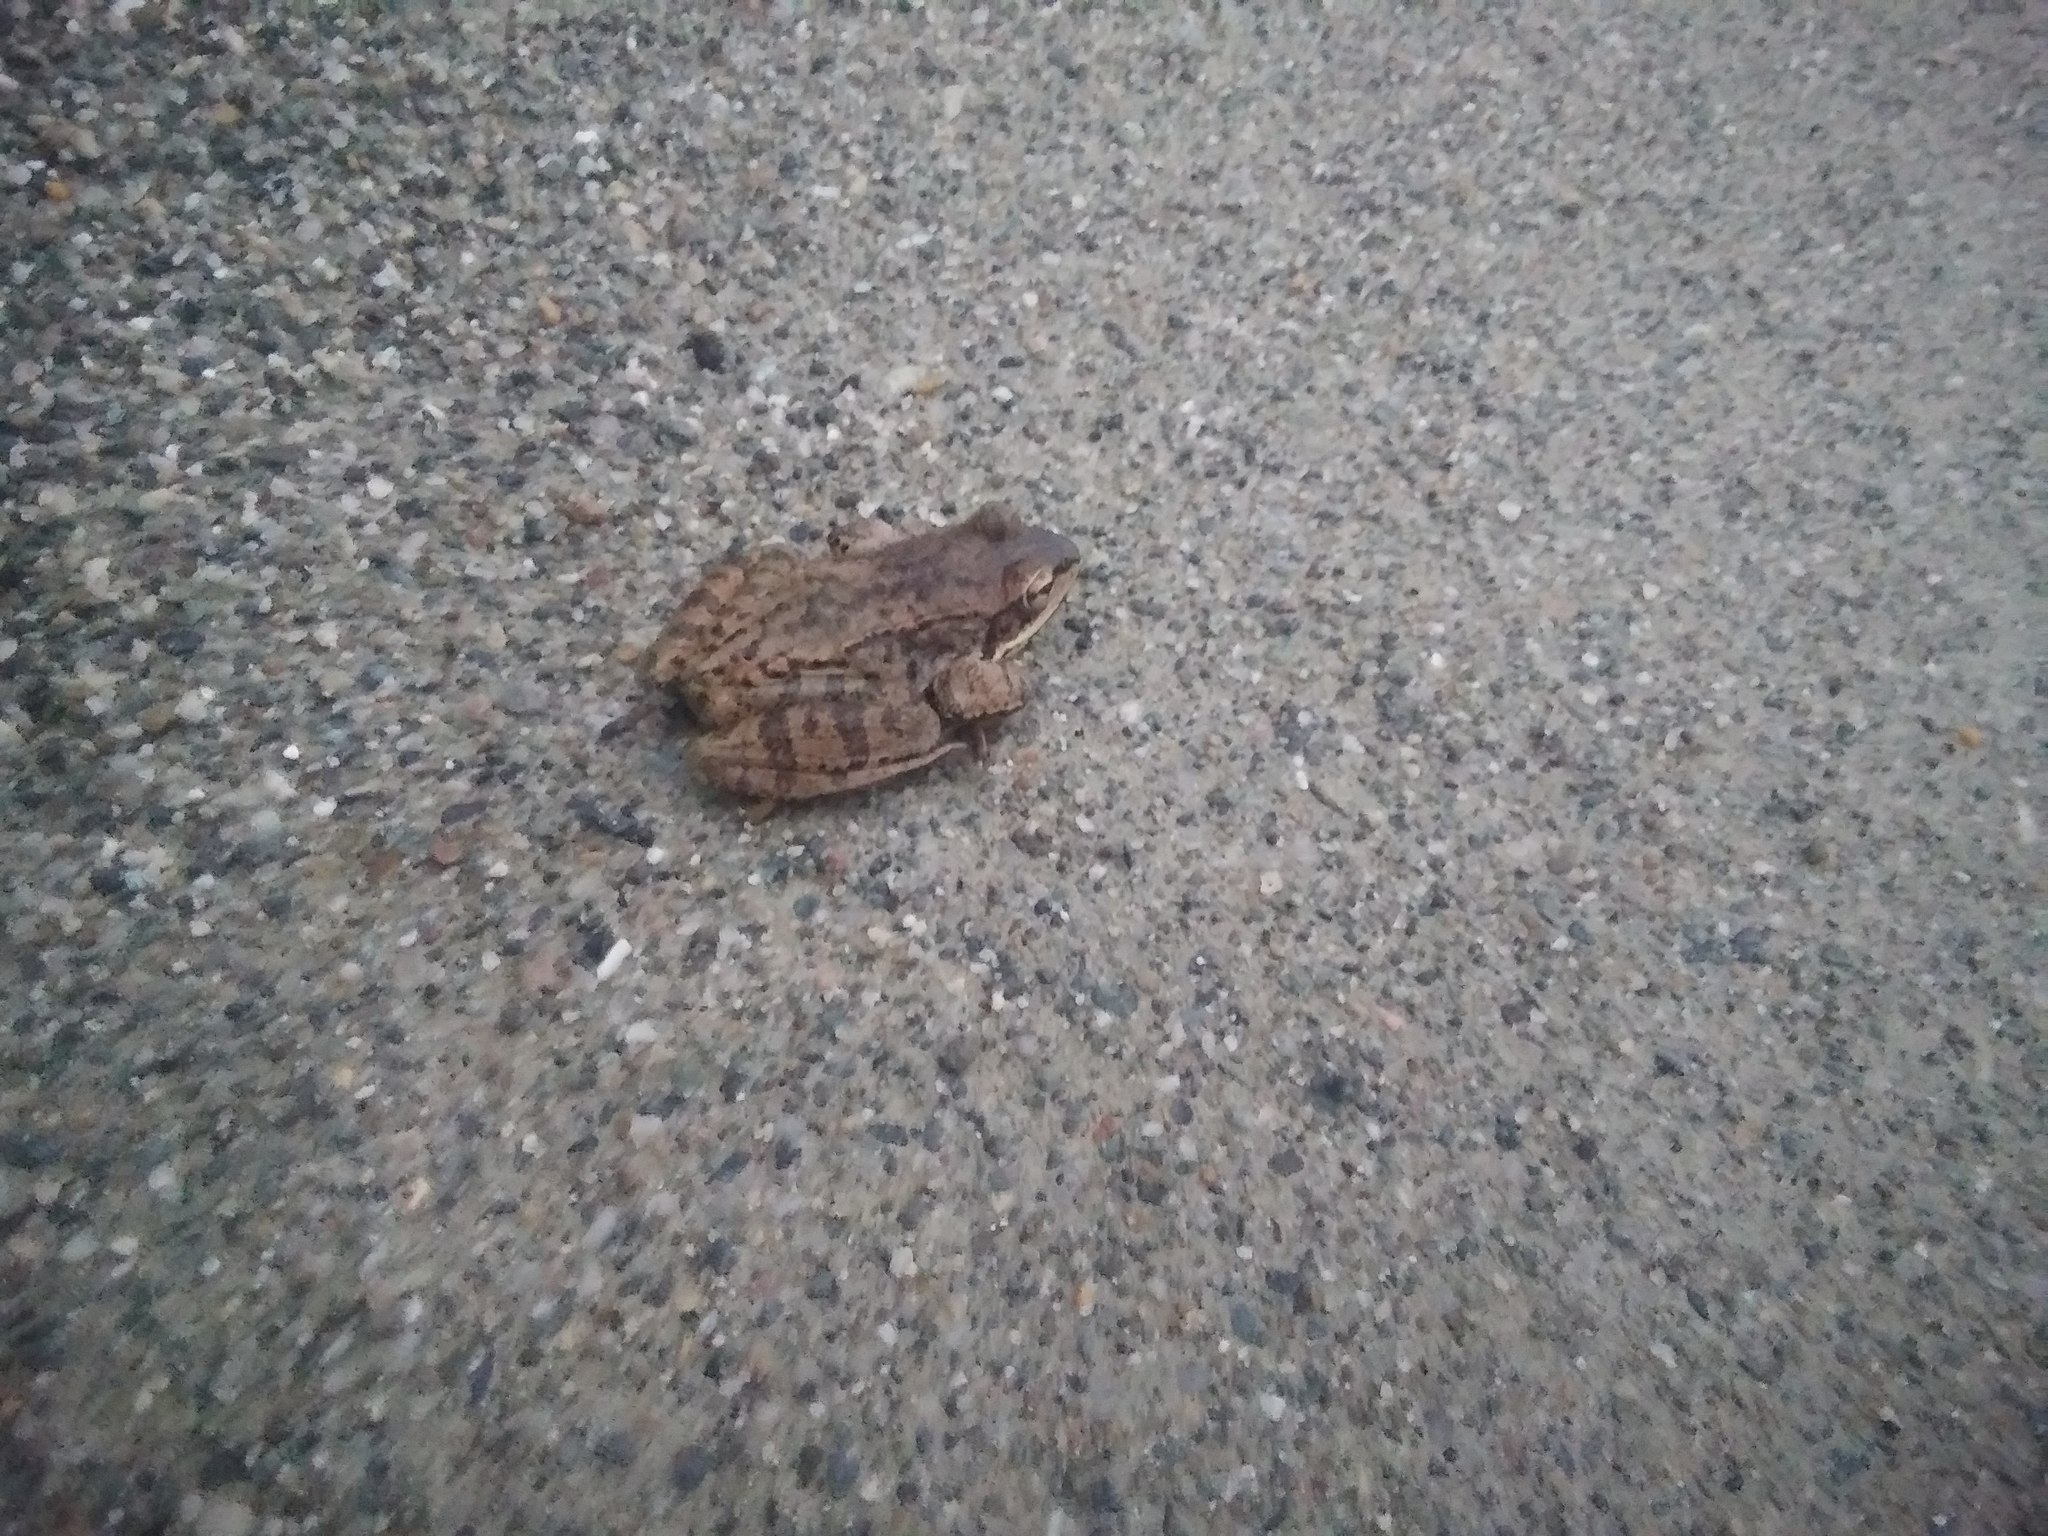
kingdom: Animalia
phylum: Chordata
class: Amphibia
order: Anura
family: Ranidae
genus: Lithobates
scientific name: Lithobates sylvaticus
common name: Wood frog
